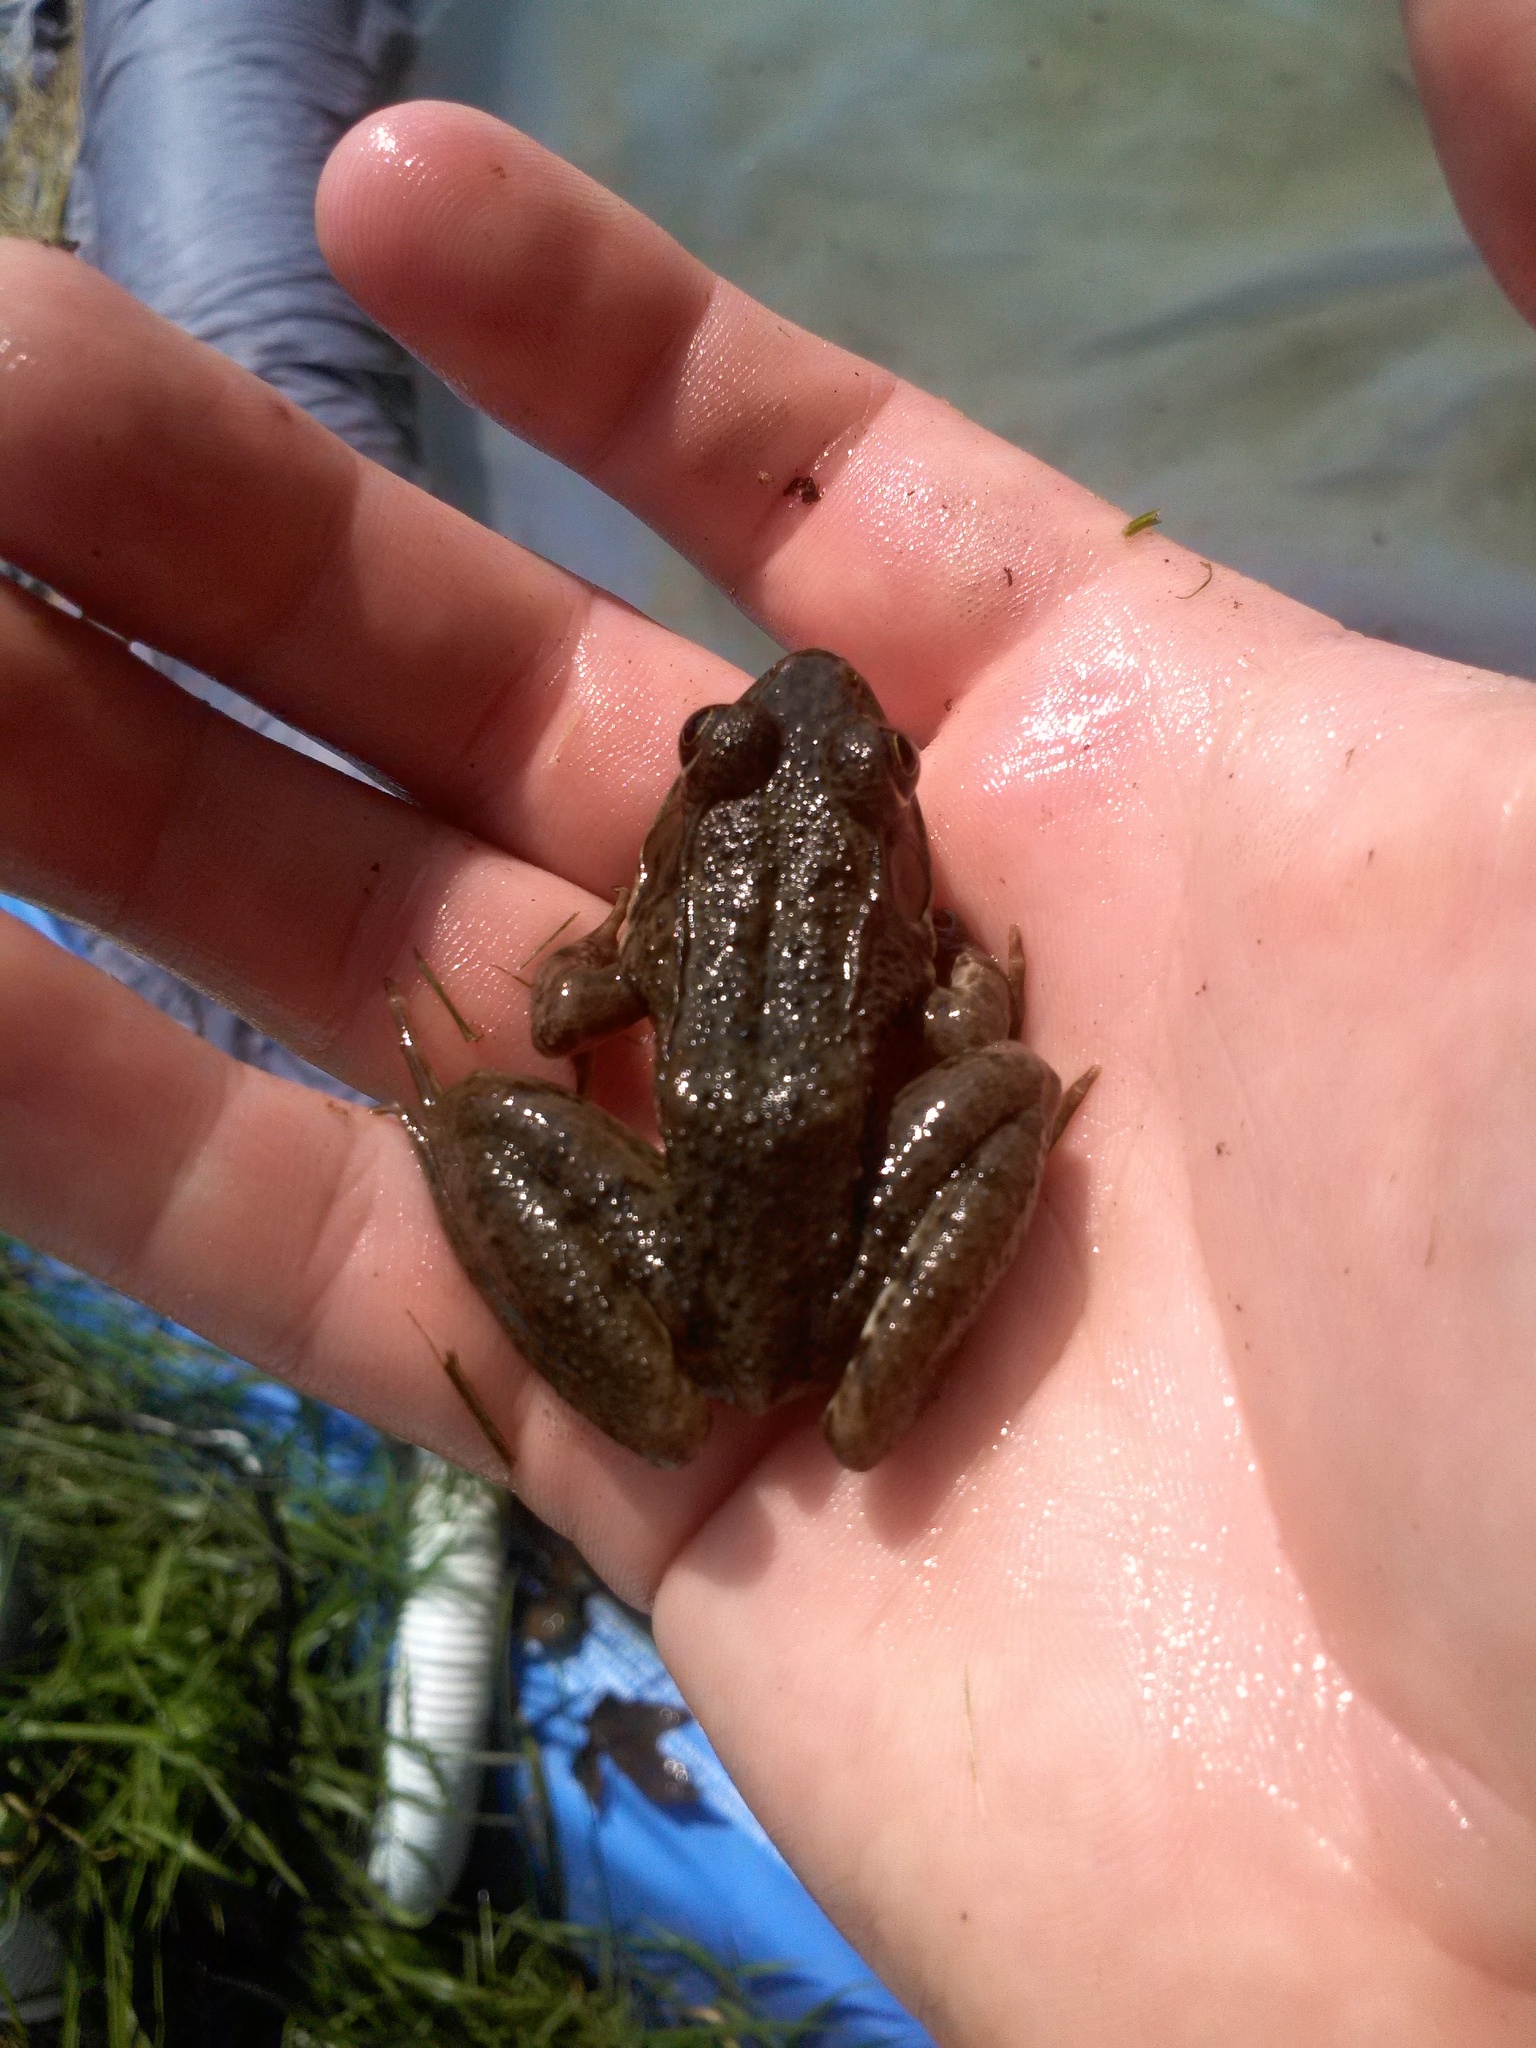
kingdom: Animalia
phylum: Chordata
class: Amphibia
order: Anura
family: Ranidae
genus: Lithobates
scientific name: Lithobates clamitans
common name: Green frog
